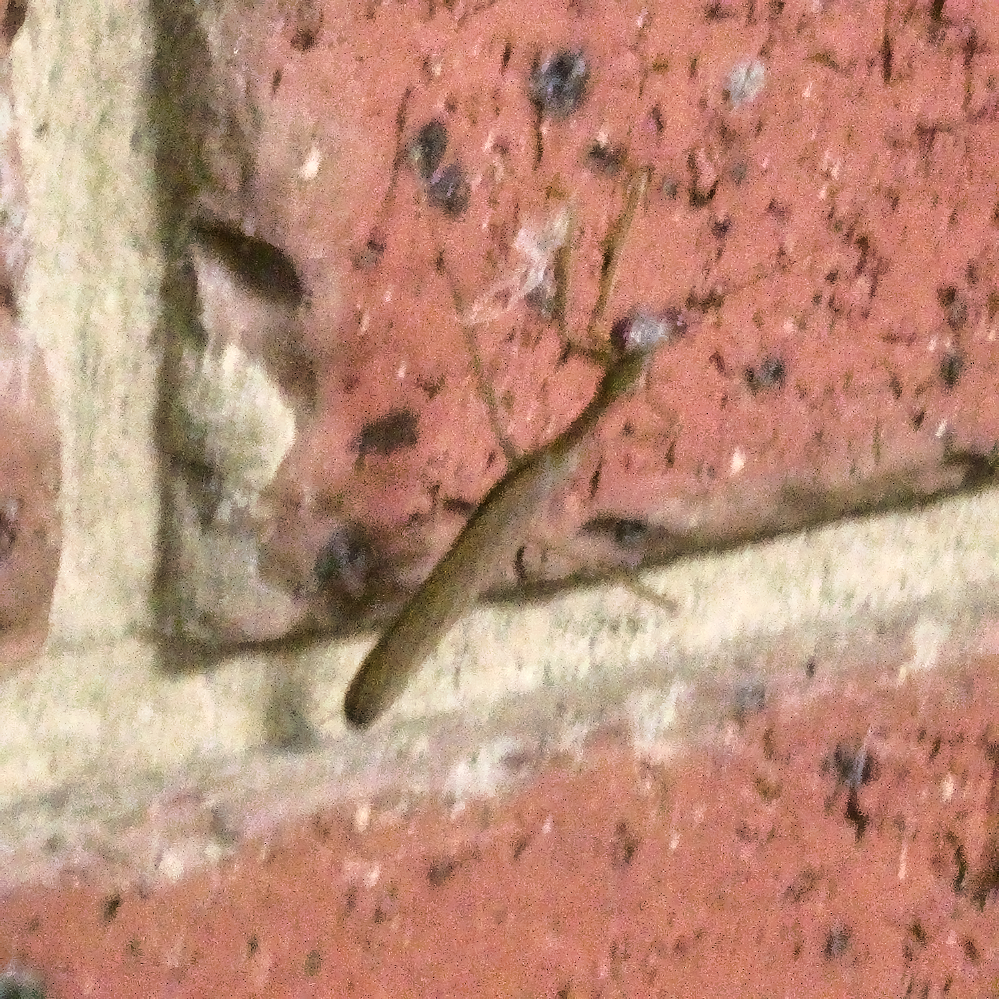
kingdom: Animalia
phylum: Arthropoda
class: Insecta
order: Mantodea
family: Mantidae
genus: Pseudomantis
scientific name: Pseudomantis albofimbriata
